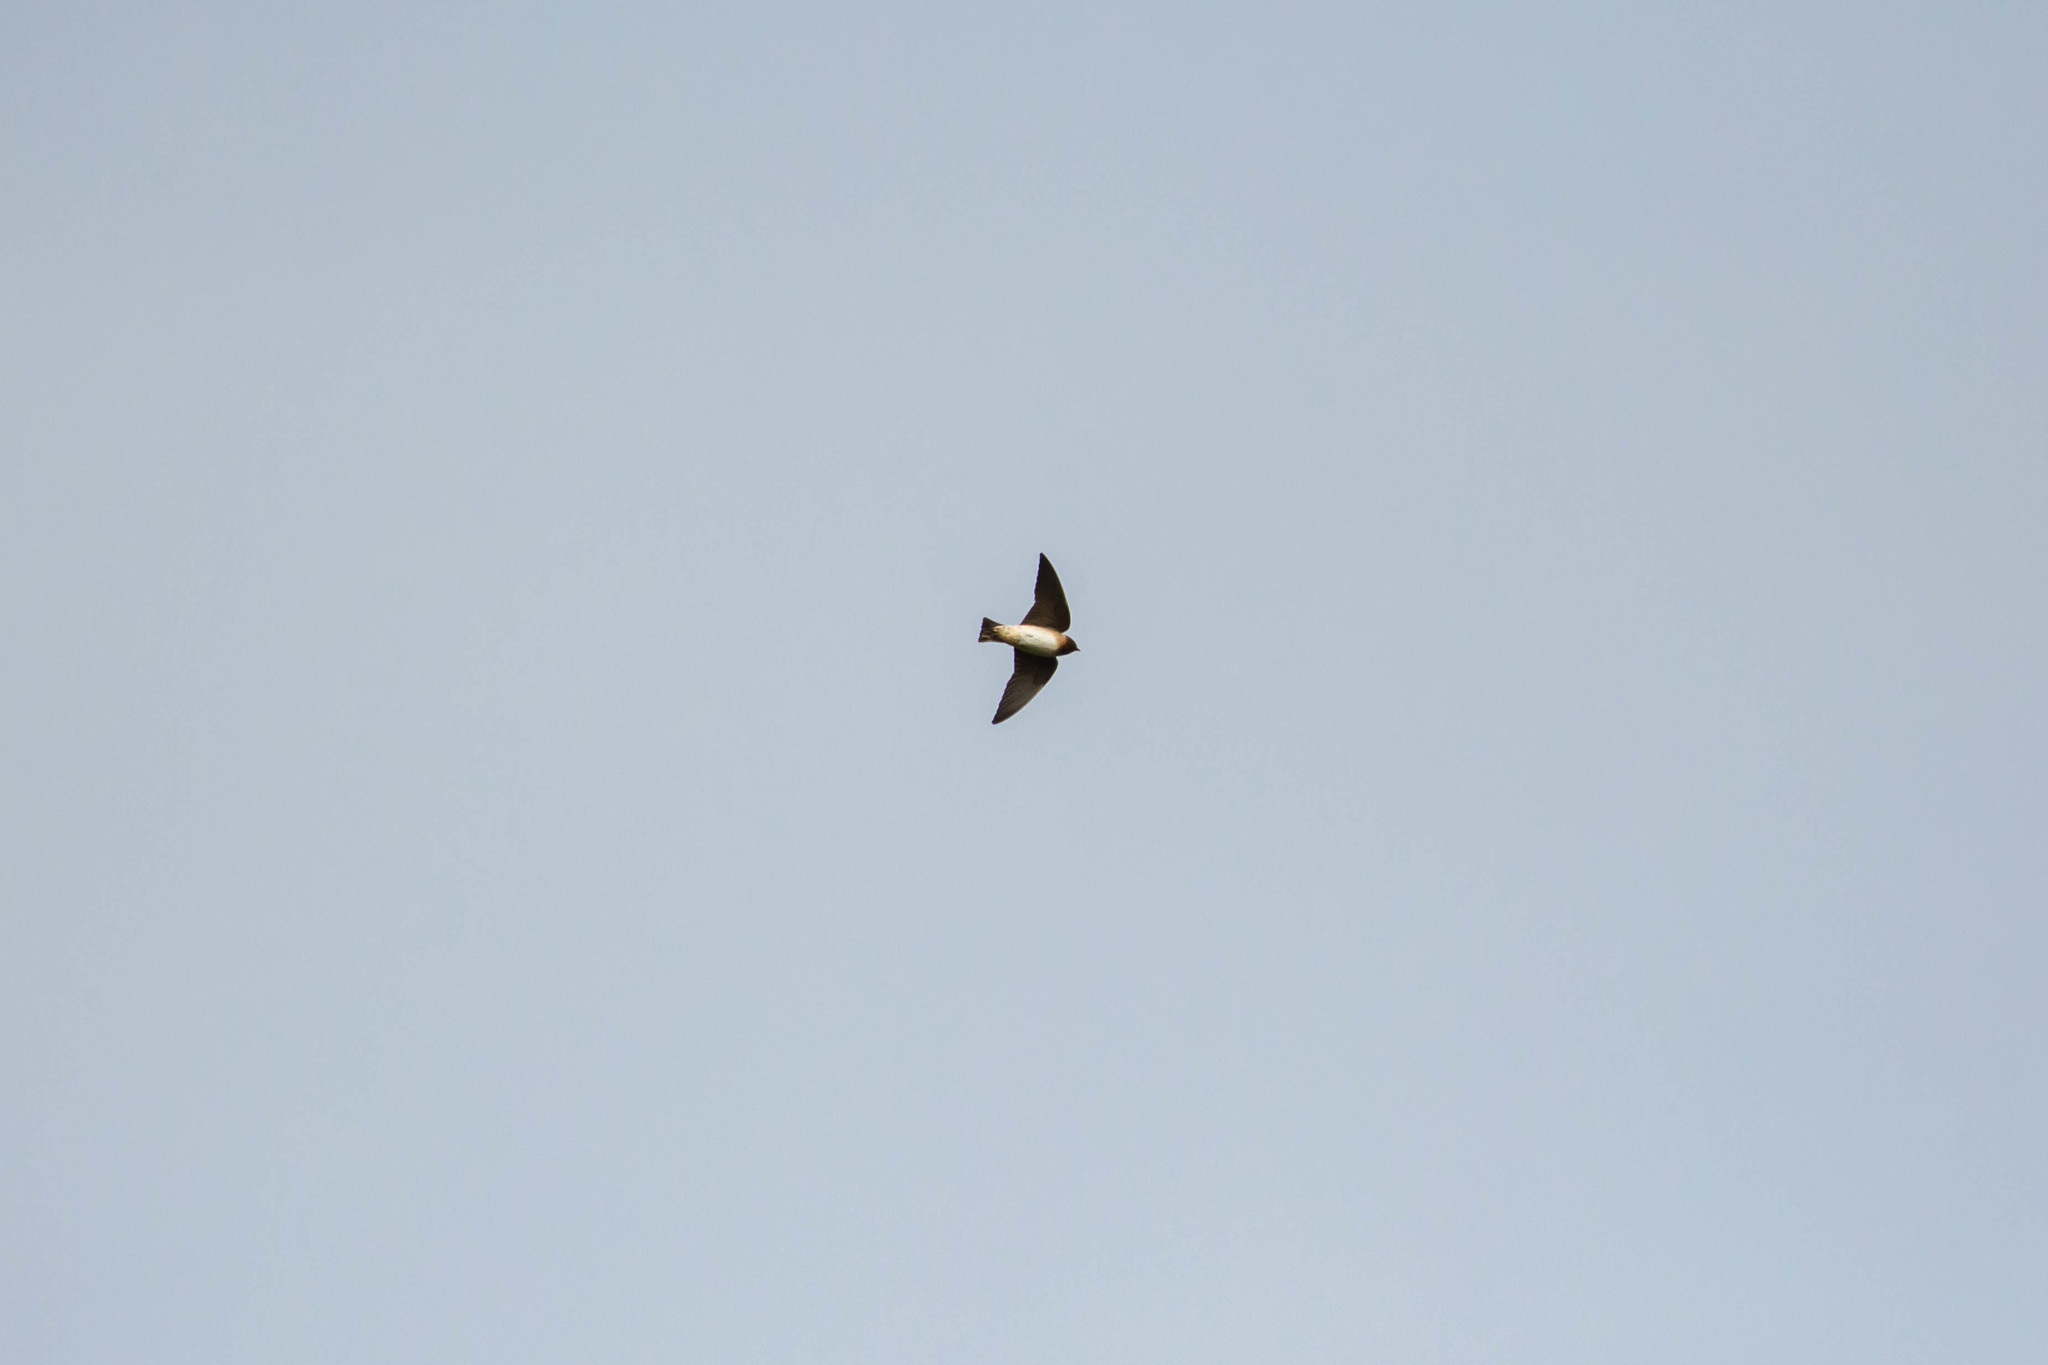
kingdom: Animalia
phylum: Chordata
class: Aves
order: Passeriformes
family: Hirundinidae
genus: Petrochelidon
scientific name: Petrochelidon pyrrhonota
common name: American cliff swallow
